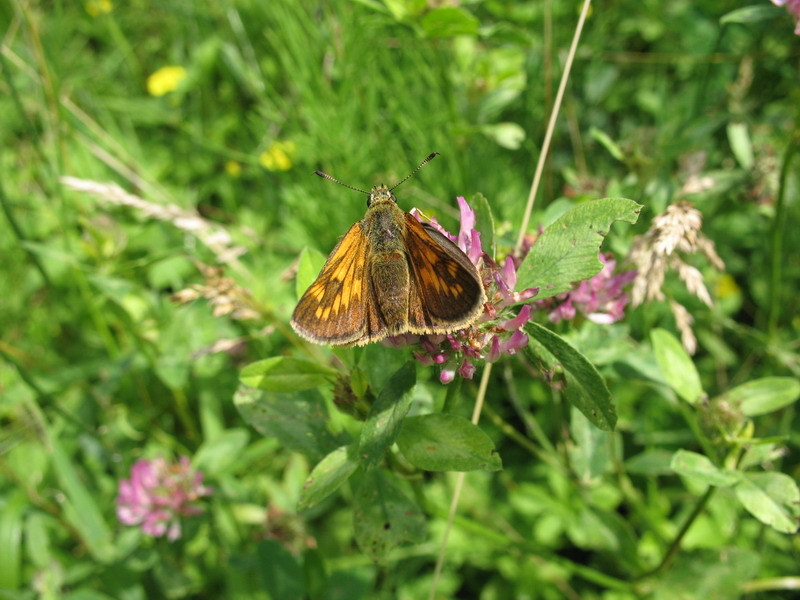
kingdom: Animalia
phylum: Arthropoda
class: Insecta
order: Lepidoptera
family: Hesperiidae
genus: Ochlodes
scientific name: Ochlodes venata
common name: Large skipper
